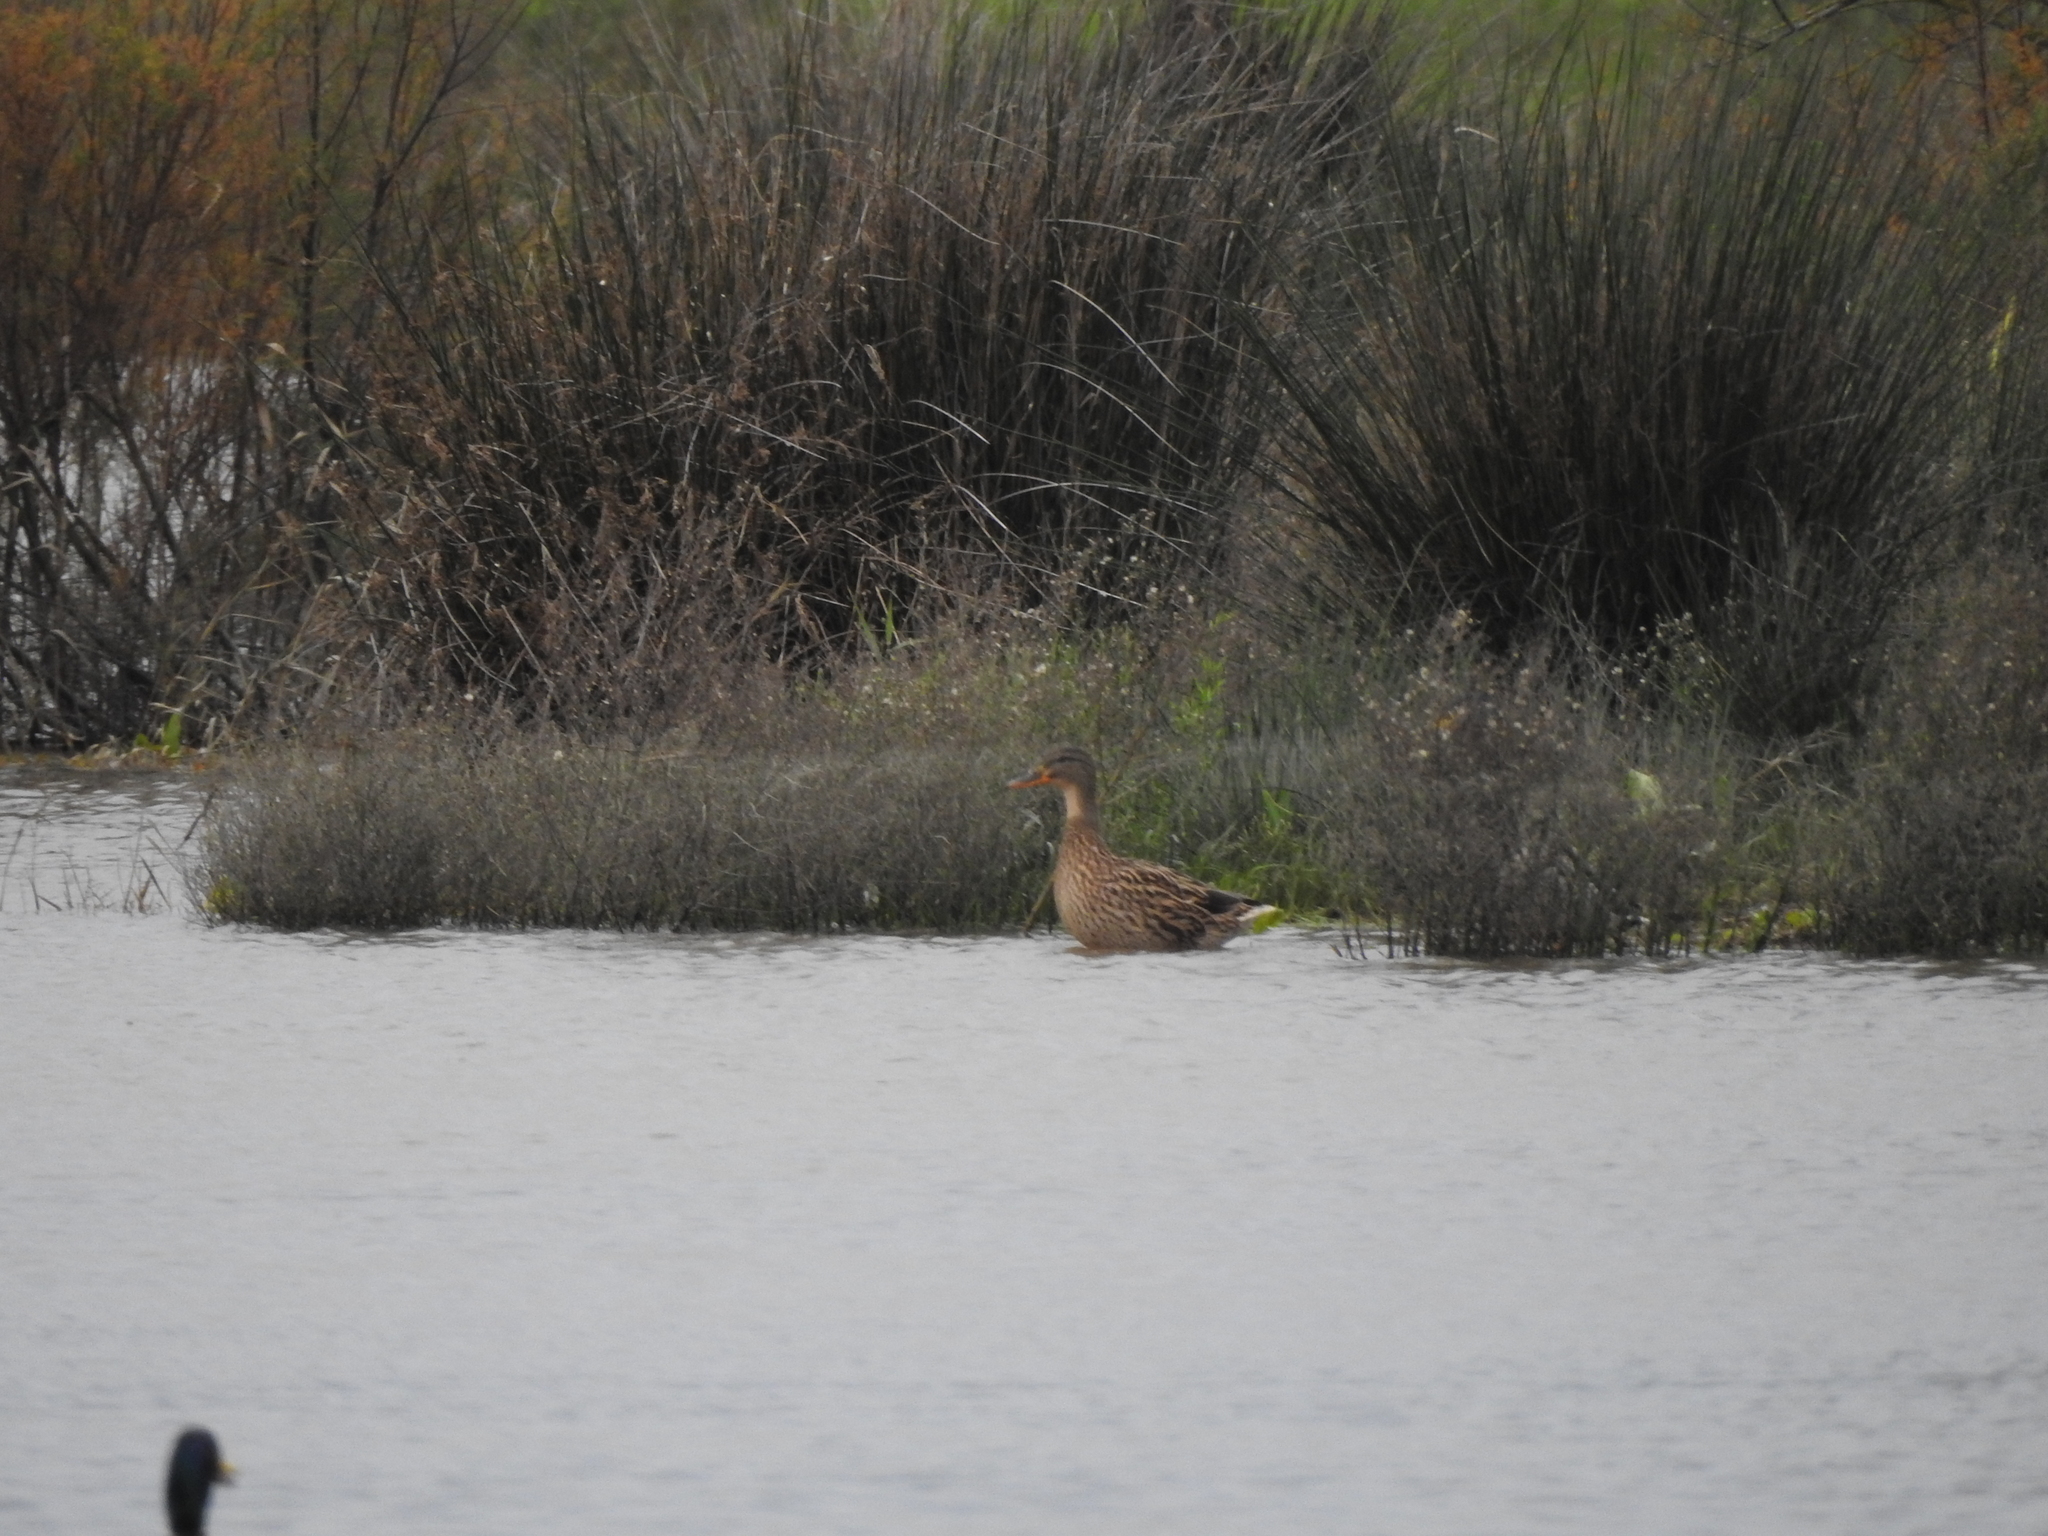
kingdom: Animalia
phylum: Chordata
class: Aves
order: Anseriformes
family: Anatidae
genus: Anas
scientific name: Anas platyrhynchos
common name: Mallard
